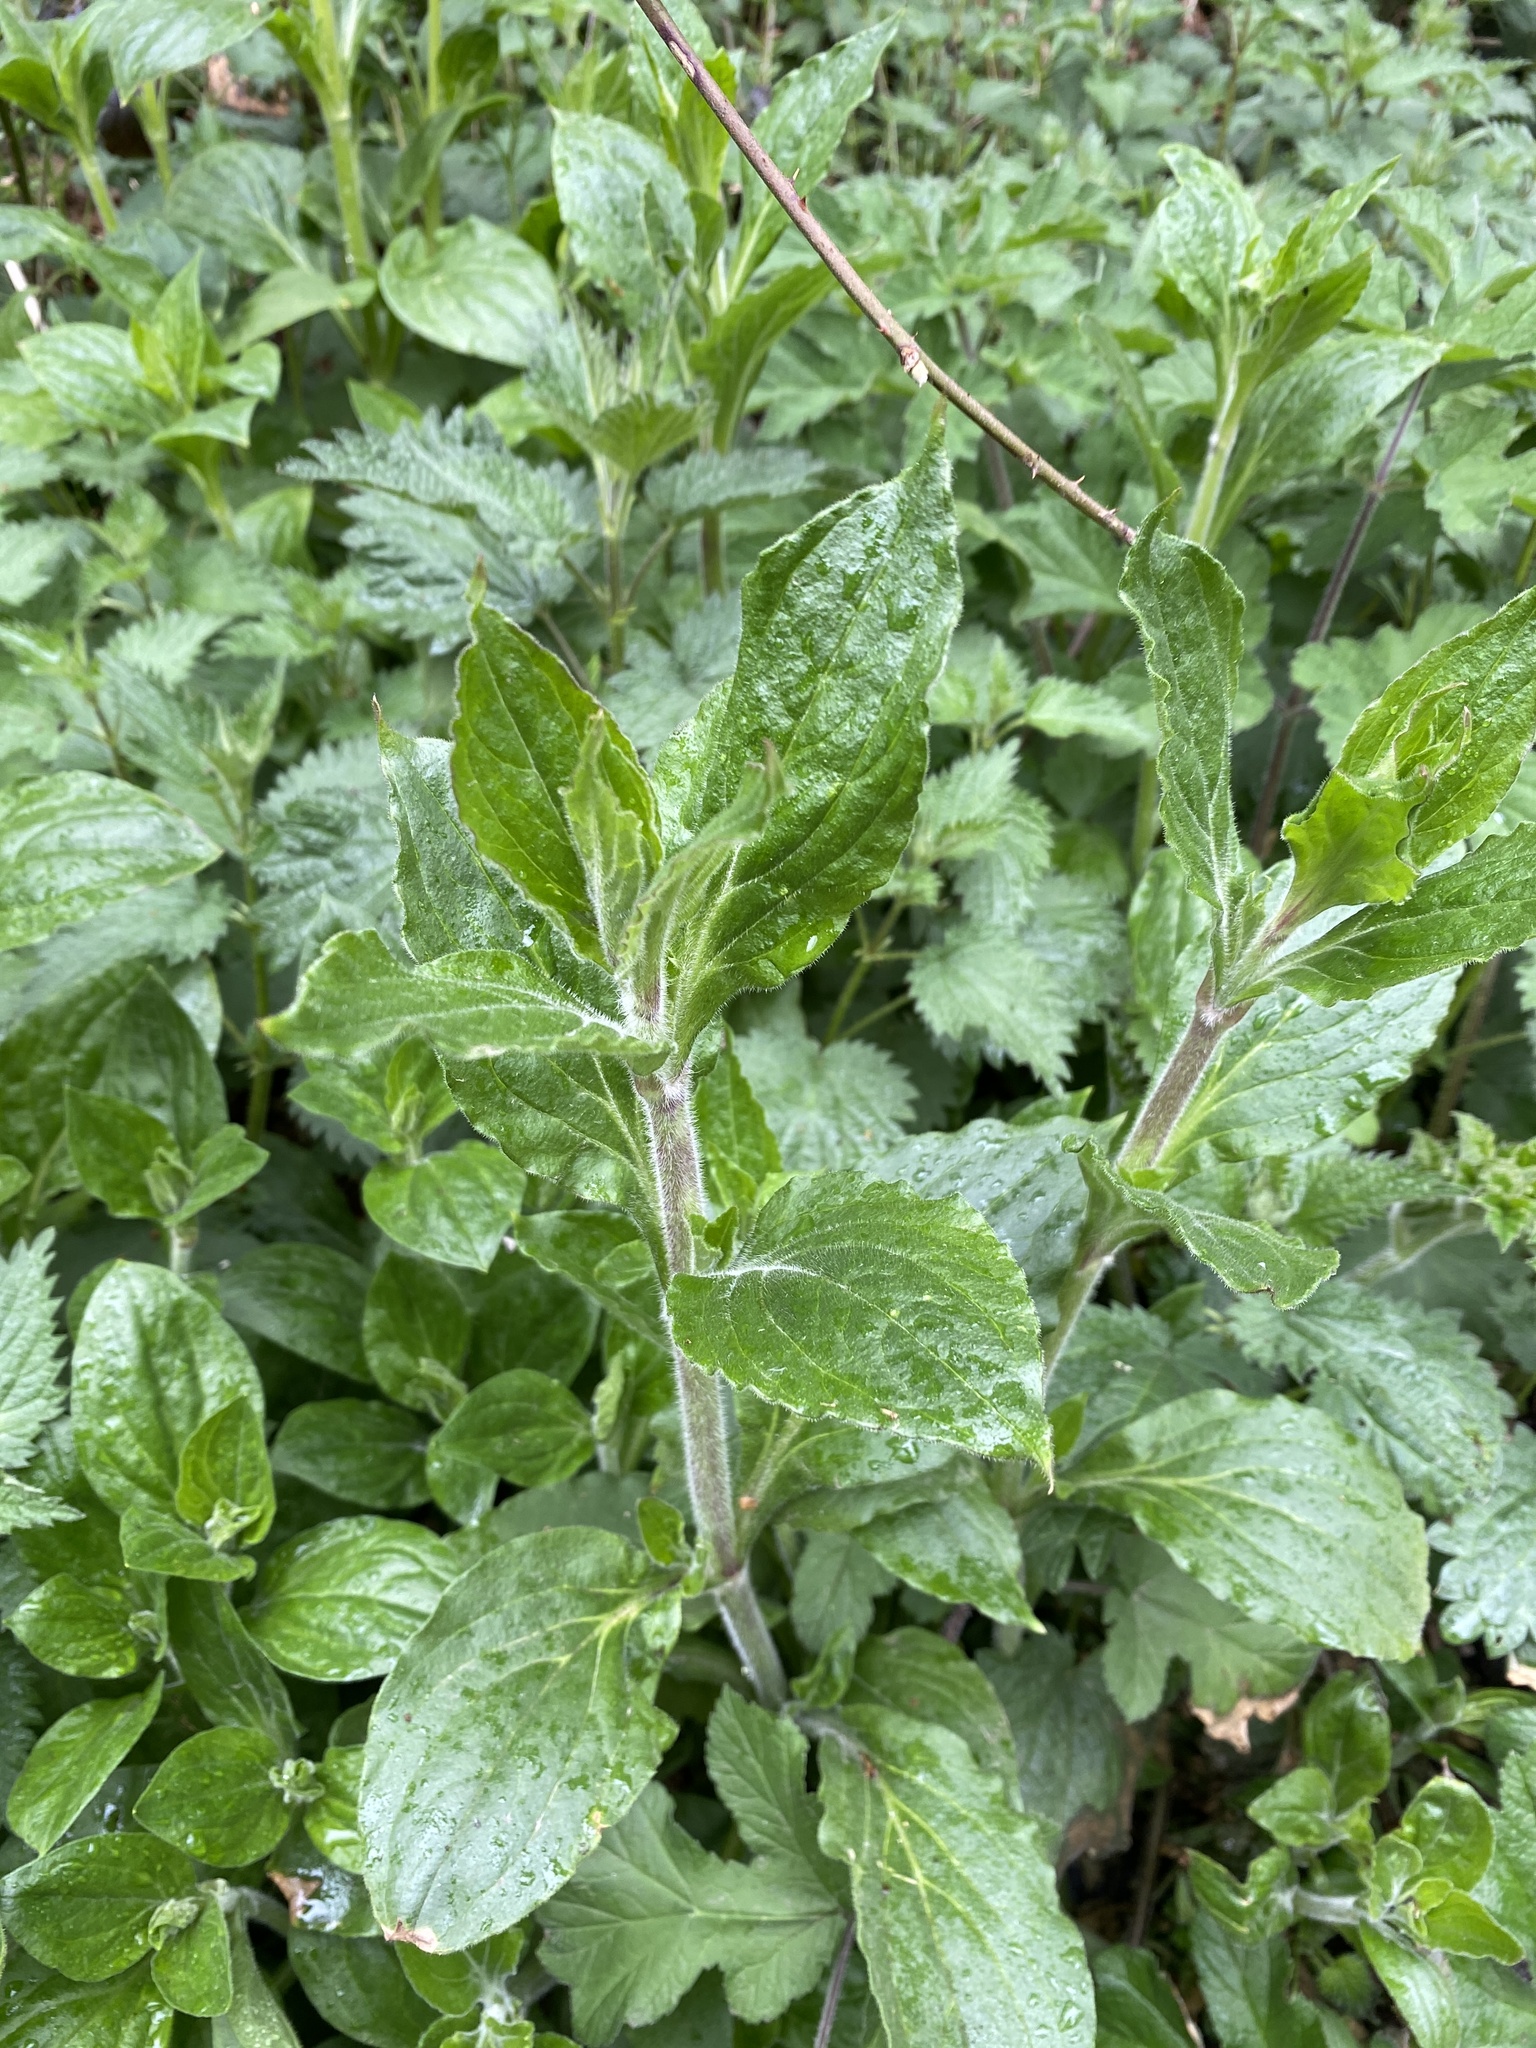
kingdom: Plantae
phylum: Tracheophyta
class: Magnoliopsida
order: Caryophyllales
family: Caryophyllaceae
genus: Silene
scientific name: Silene dioica
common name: Red campion
